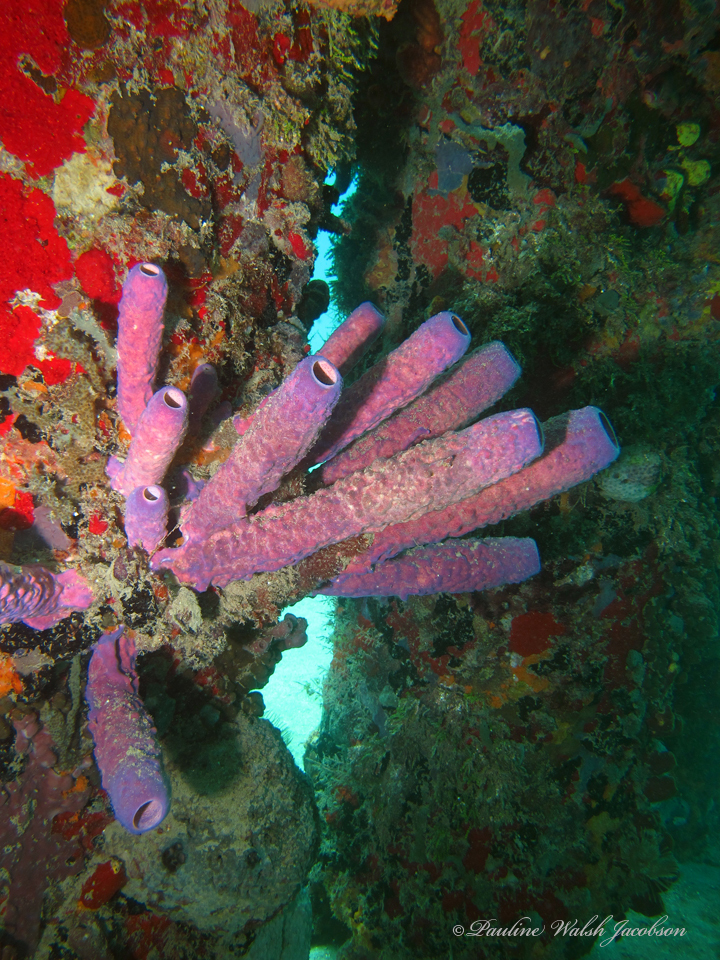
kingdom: Animalia
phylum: Porifera
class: Demospongiae
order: Verongiida
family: Aplysinidae
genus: Aplysina
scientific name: Aplysina archeri
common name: Stove-pipe sponge
